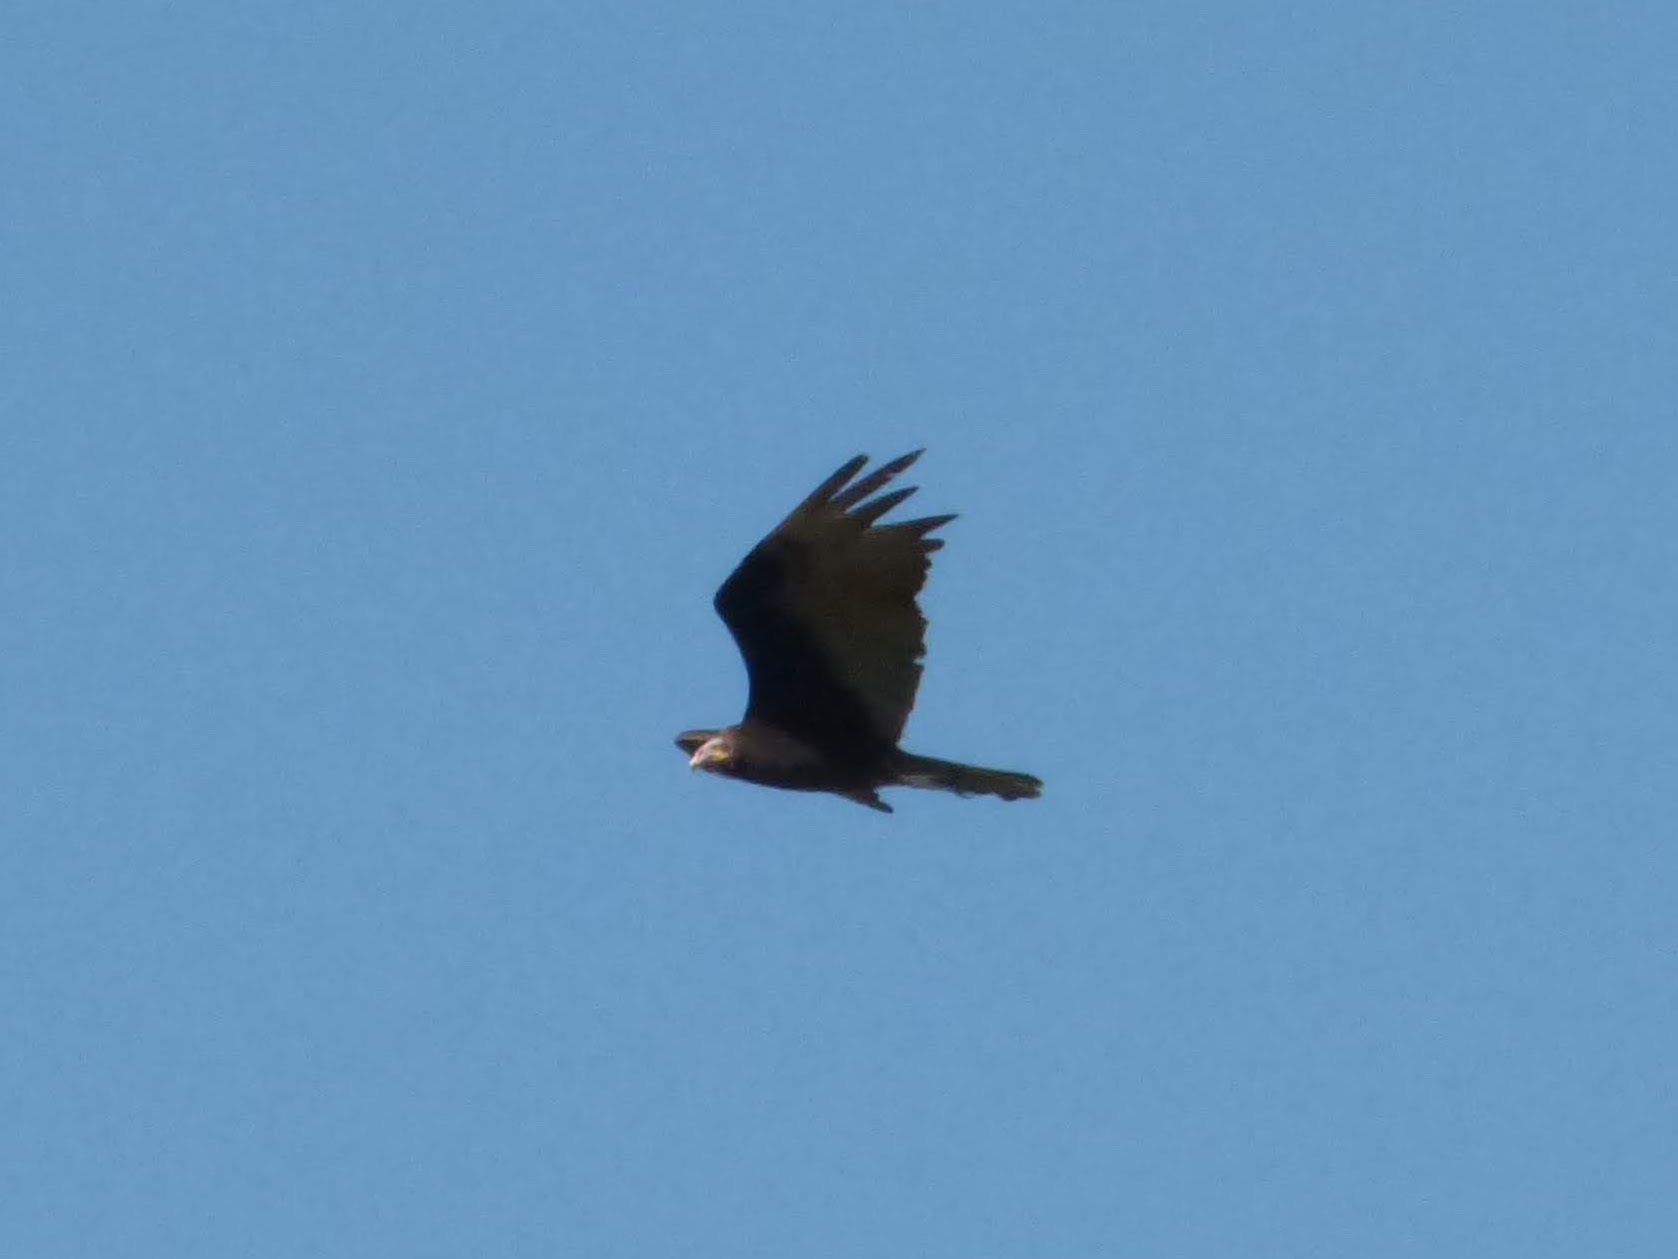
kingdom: Animalia
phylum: Chordata
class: Aves
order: Accipitriformes
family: Cathartidae
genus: Cathartes
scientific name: Cathartes burrovianus
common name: Lesser yellow-headed vulture
